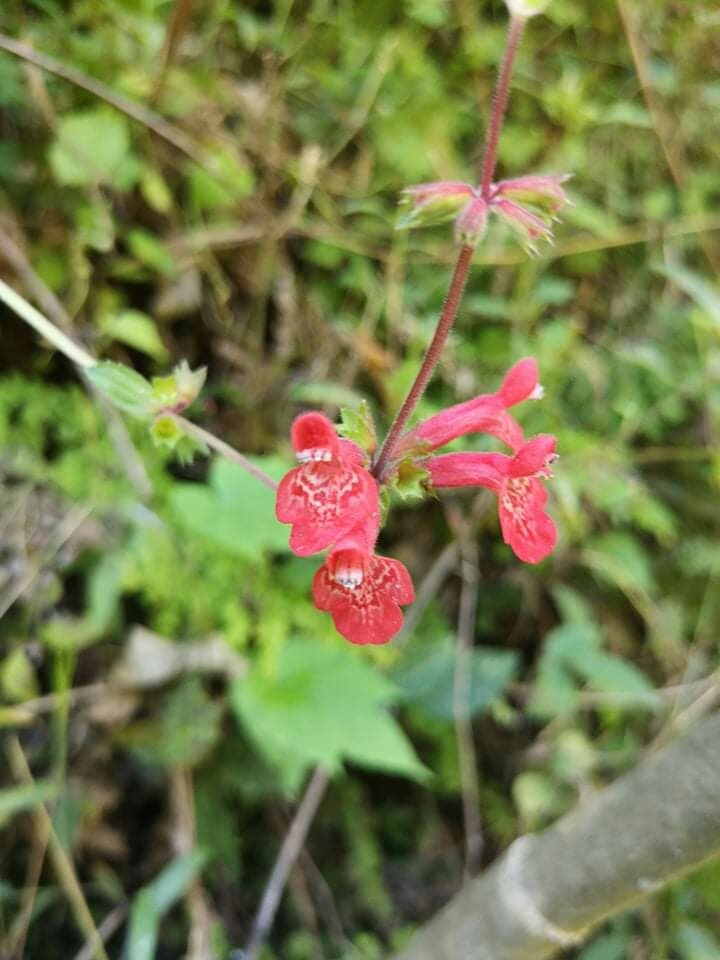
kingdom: Plantae
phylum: Tracheophyta
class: Magnoliopsida
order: Lamiales
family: Lamiaceae
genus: Stachys
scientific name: Stachys coccinea
